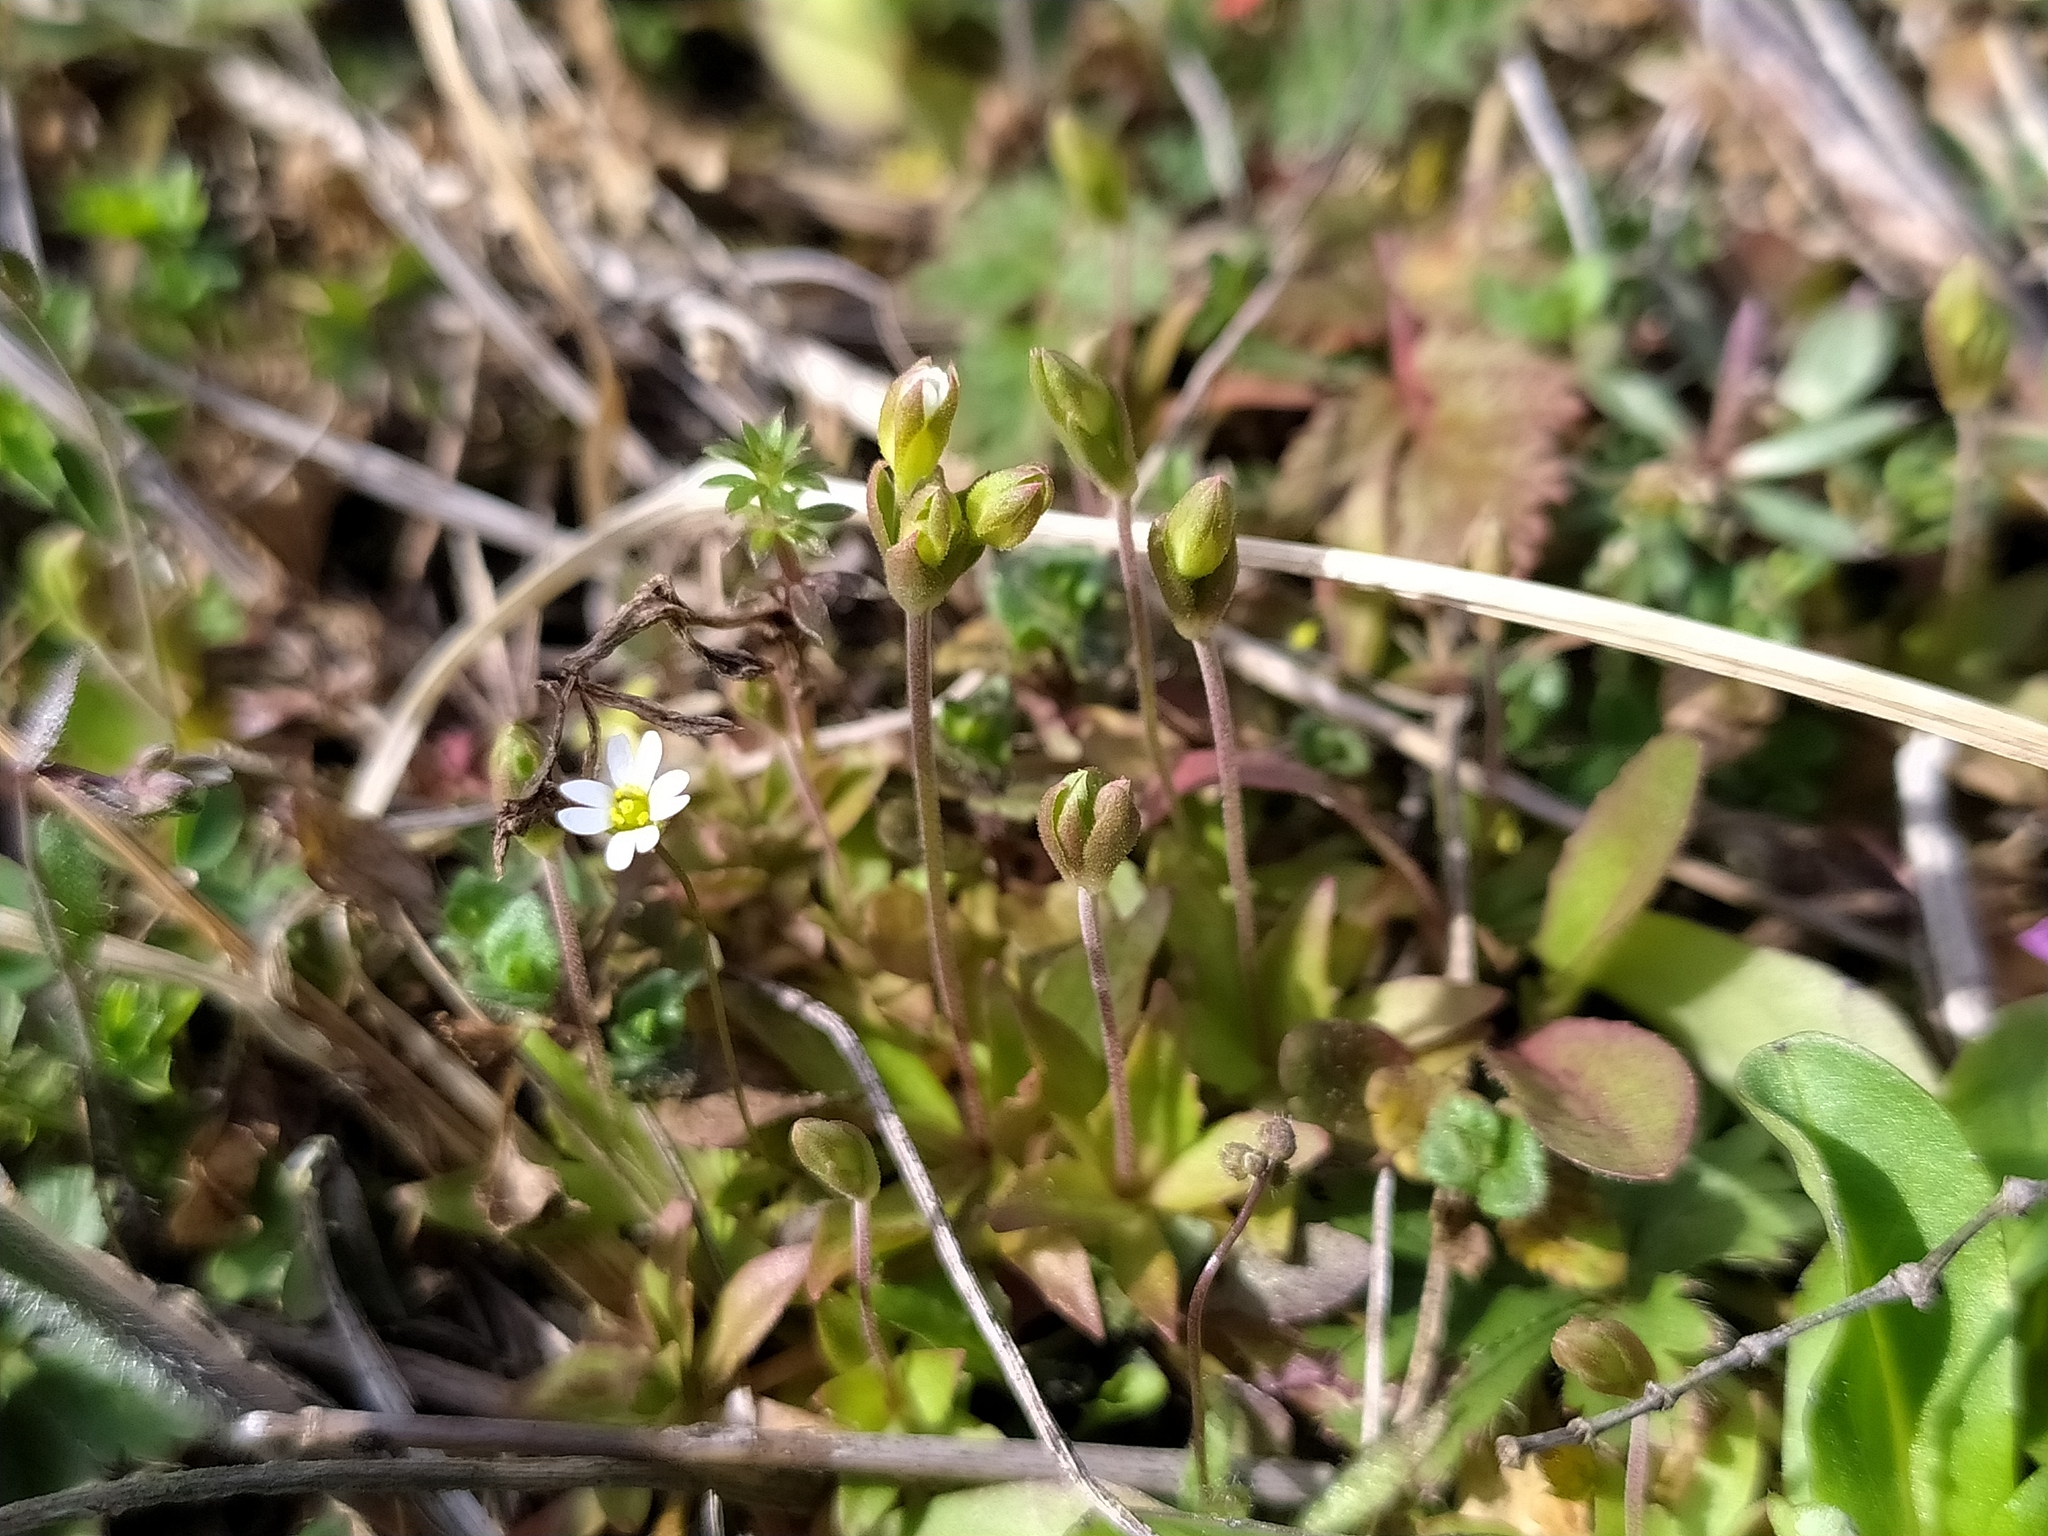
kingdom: Plantae
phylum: Tracheophyta
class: Magnoliopsida
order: Ericales
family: Primulaceae
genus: Androsace
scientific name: Androsace elongata
